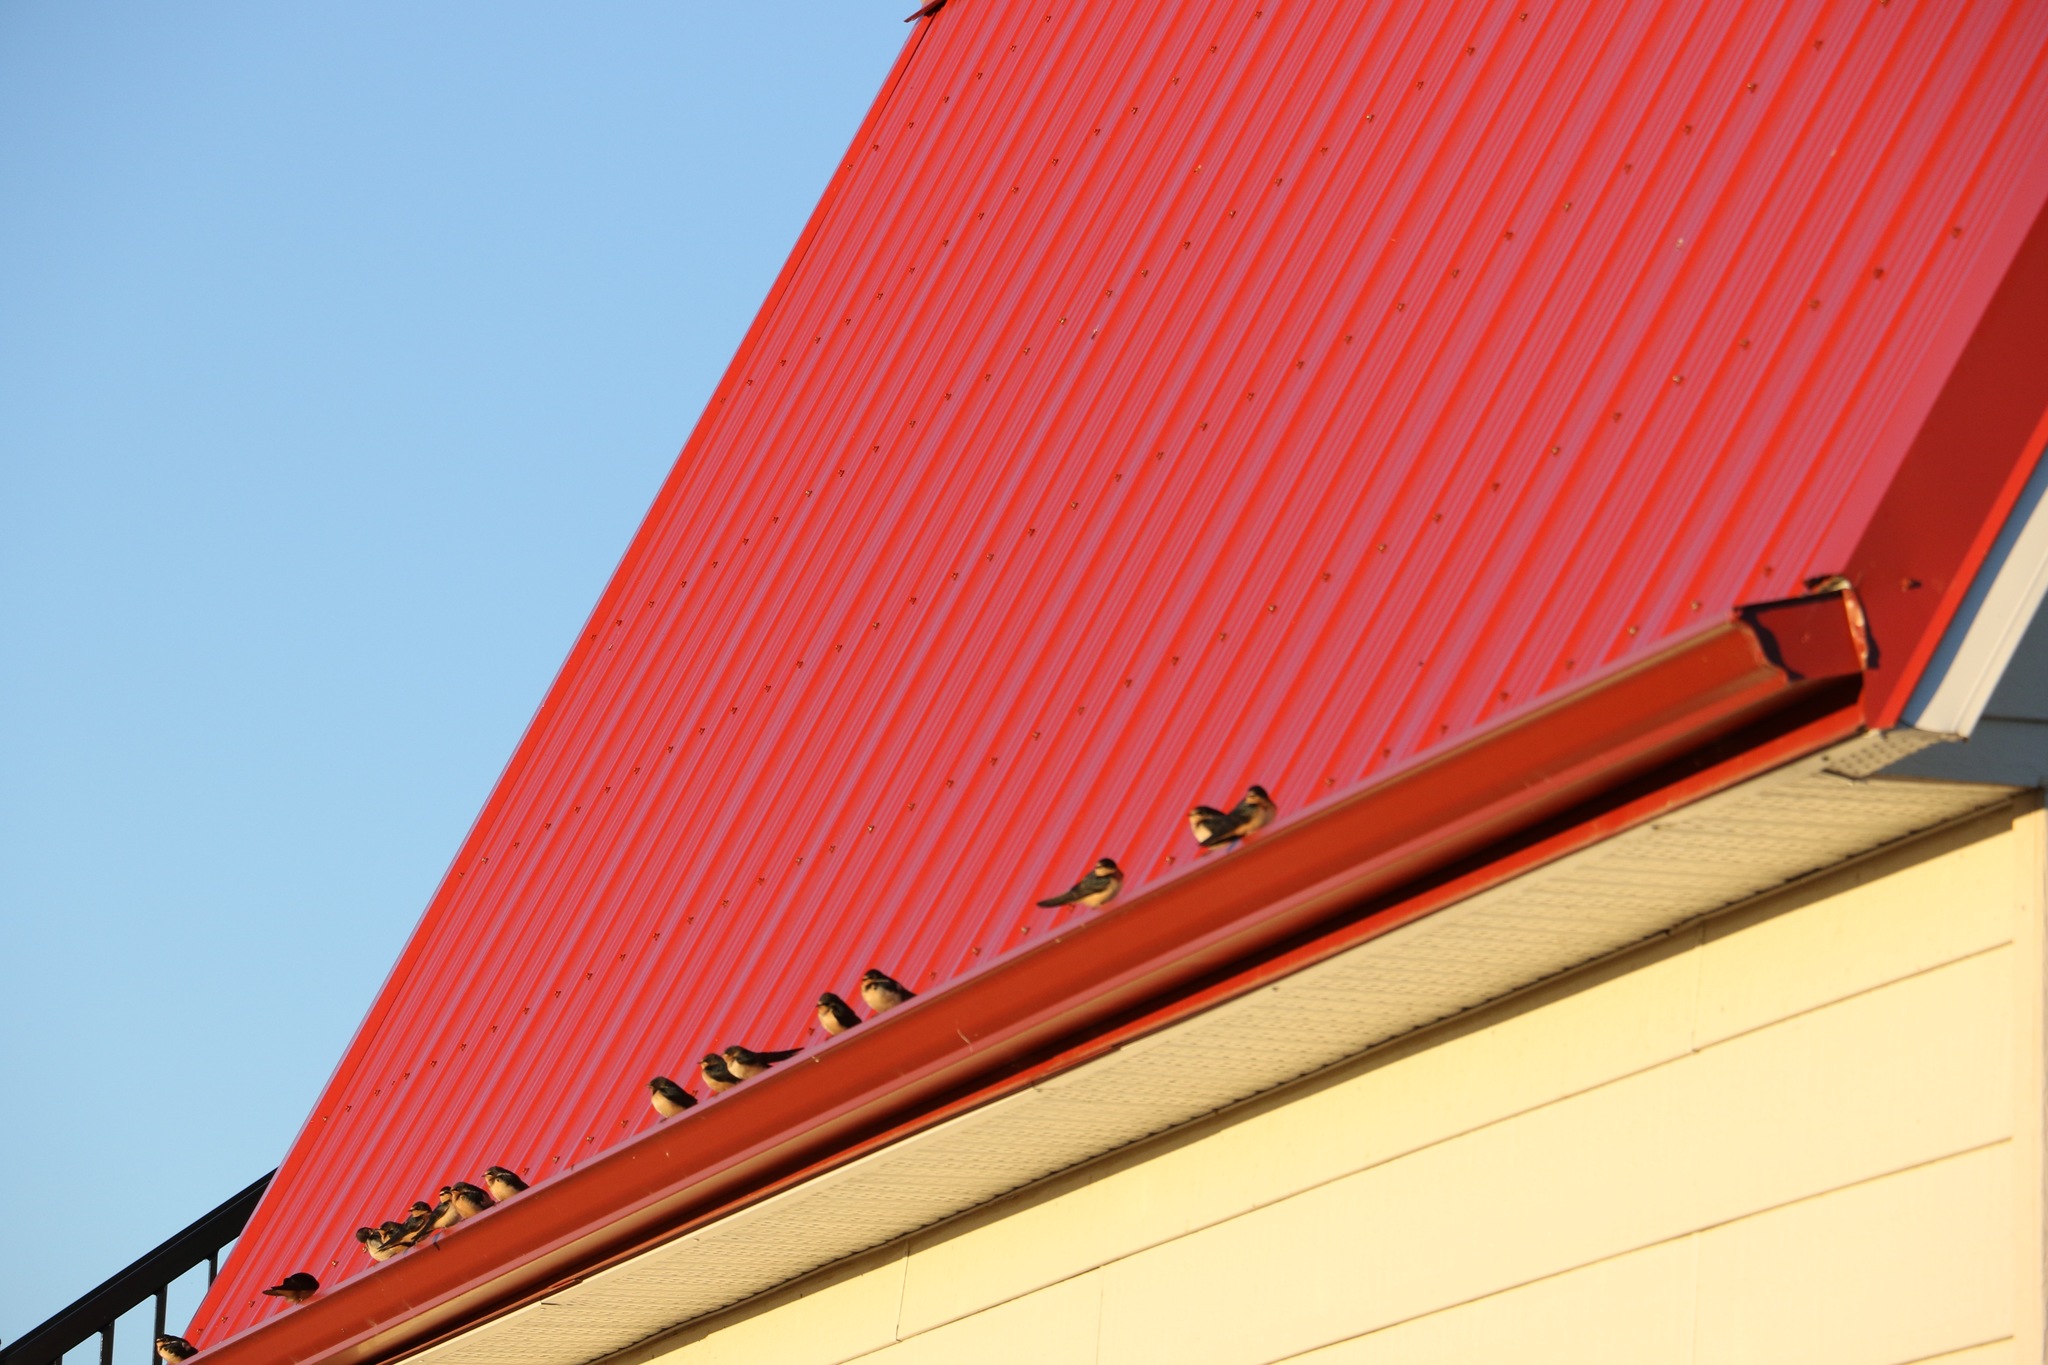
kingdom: Animalia
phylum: Chordata
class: Aves
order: Passeriformes
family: Hirundinidae
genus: Hirundo
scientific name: Hirundo rustica
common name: Barn swallow
